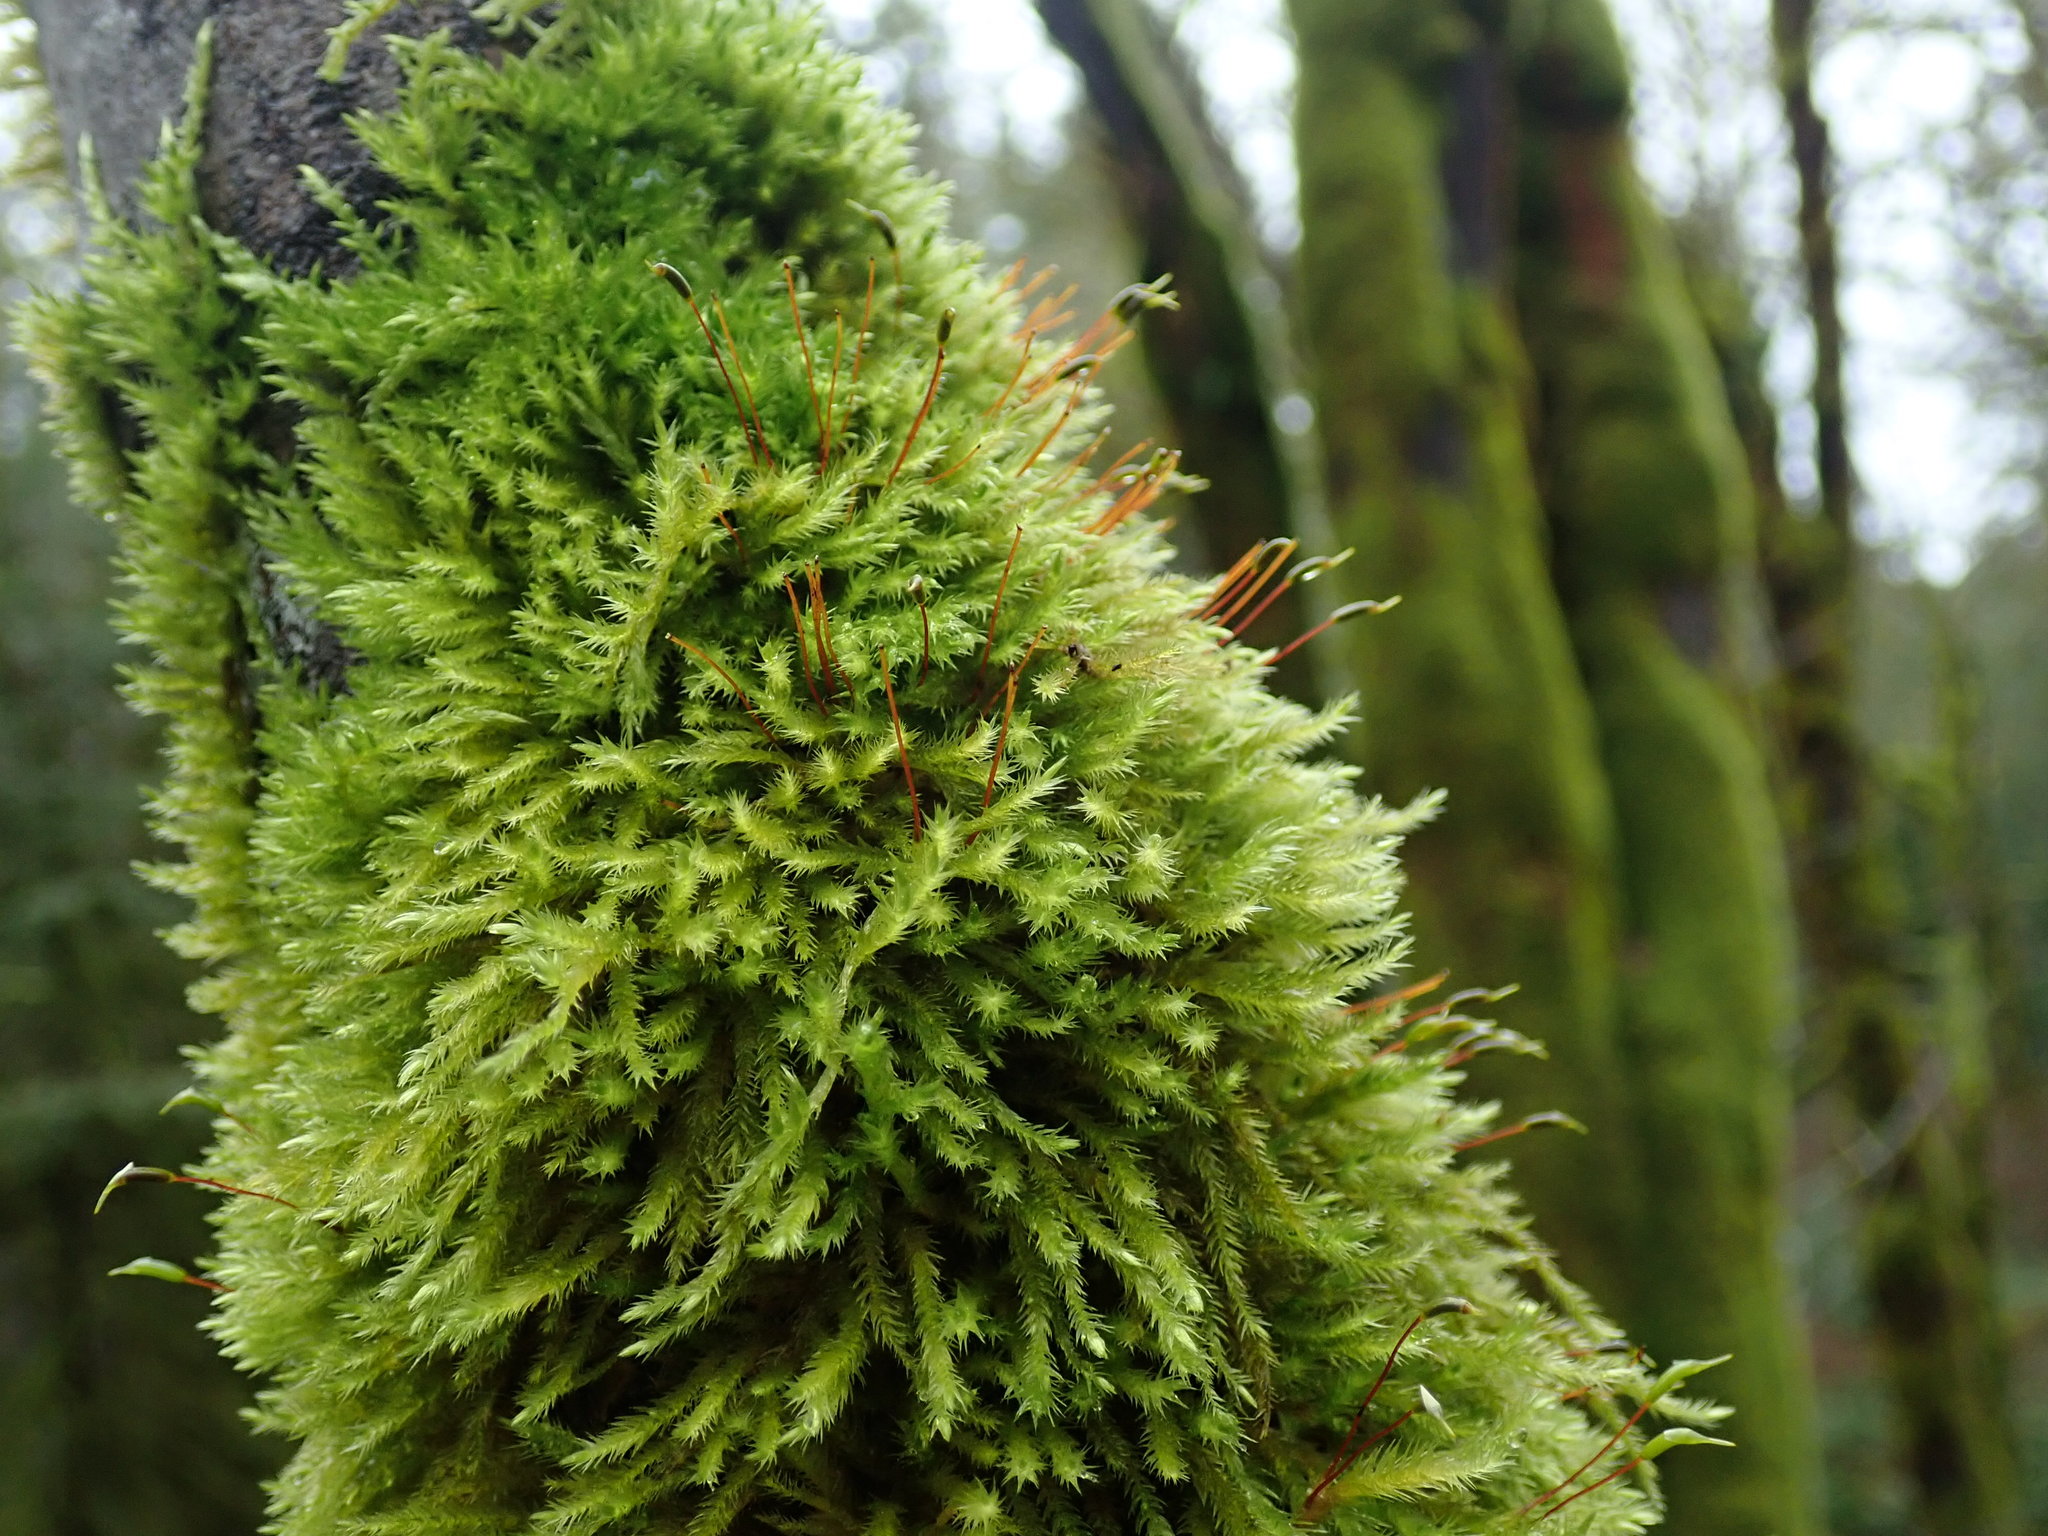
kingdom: Plantae
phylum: Bryophyta
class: Bryopsida
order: Hypnales
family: Brachytheciaceae
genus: Homalothecium
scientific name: Homalothecium fulgescens
